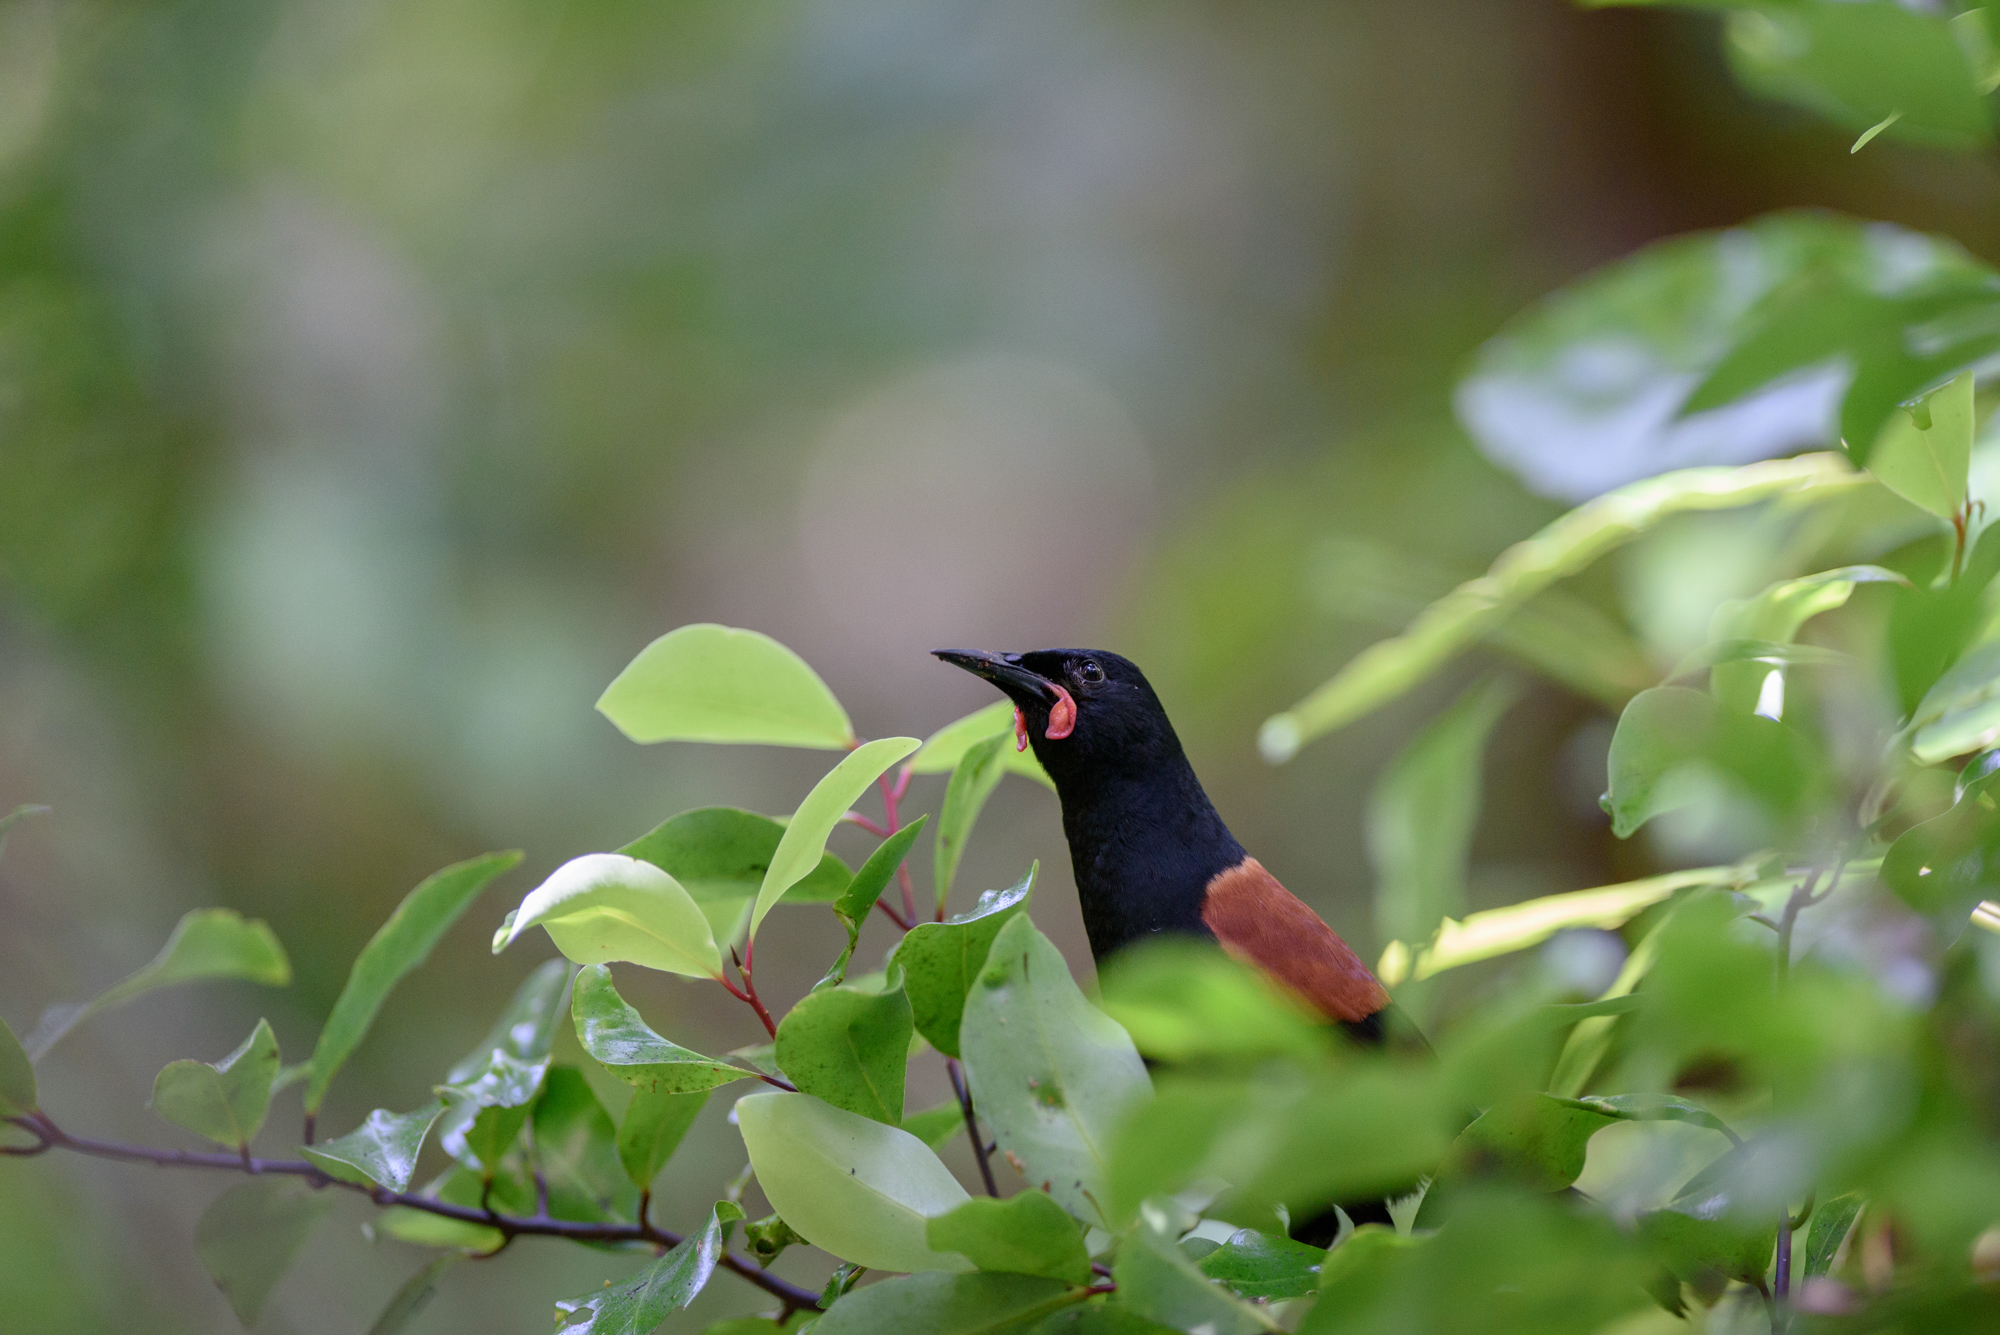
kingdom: Animalia
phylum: Chordata
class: Aves
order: Passeriformes
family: Callaeatidae
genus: Philesturnus
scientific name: Philesturnus carunculatus
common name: South island saddleback
